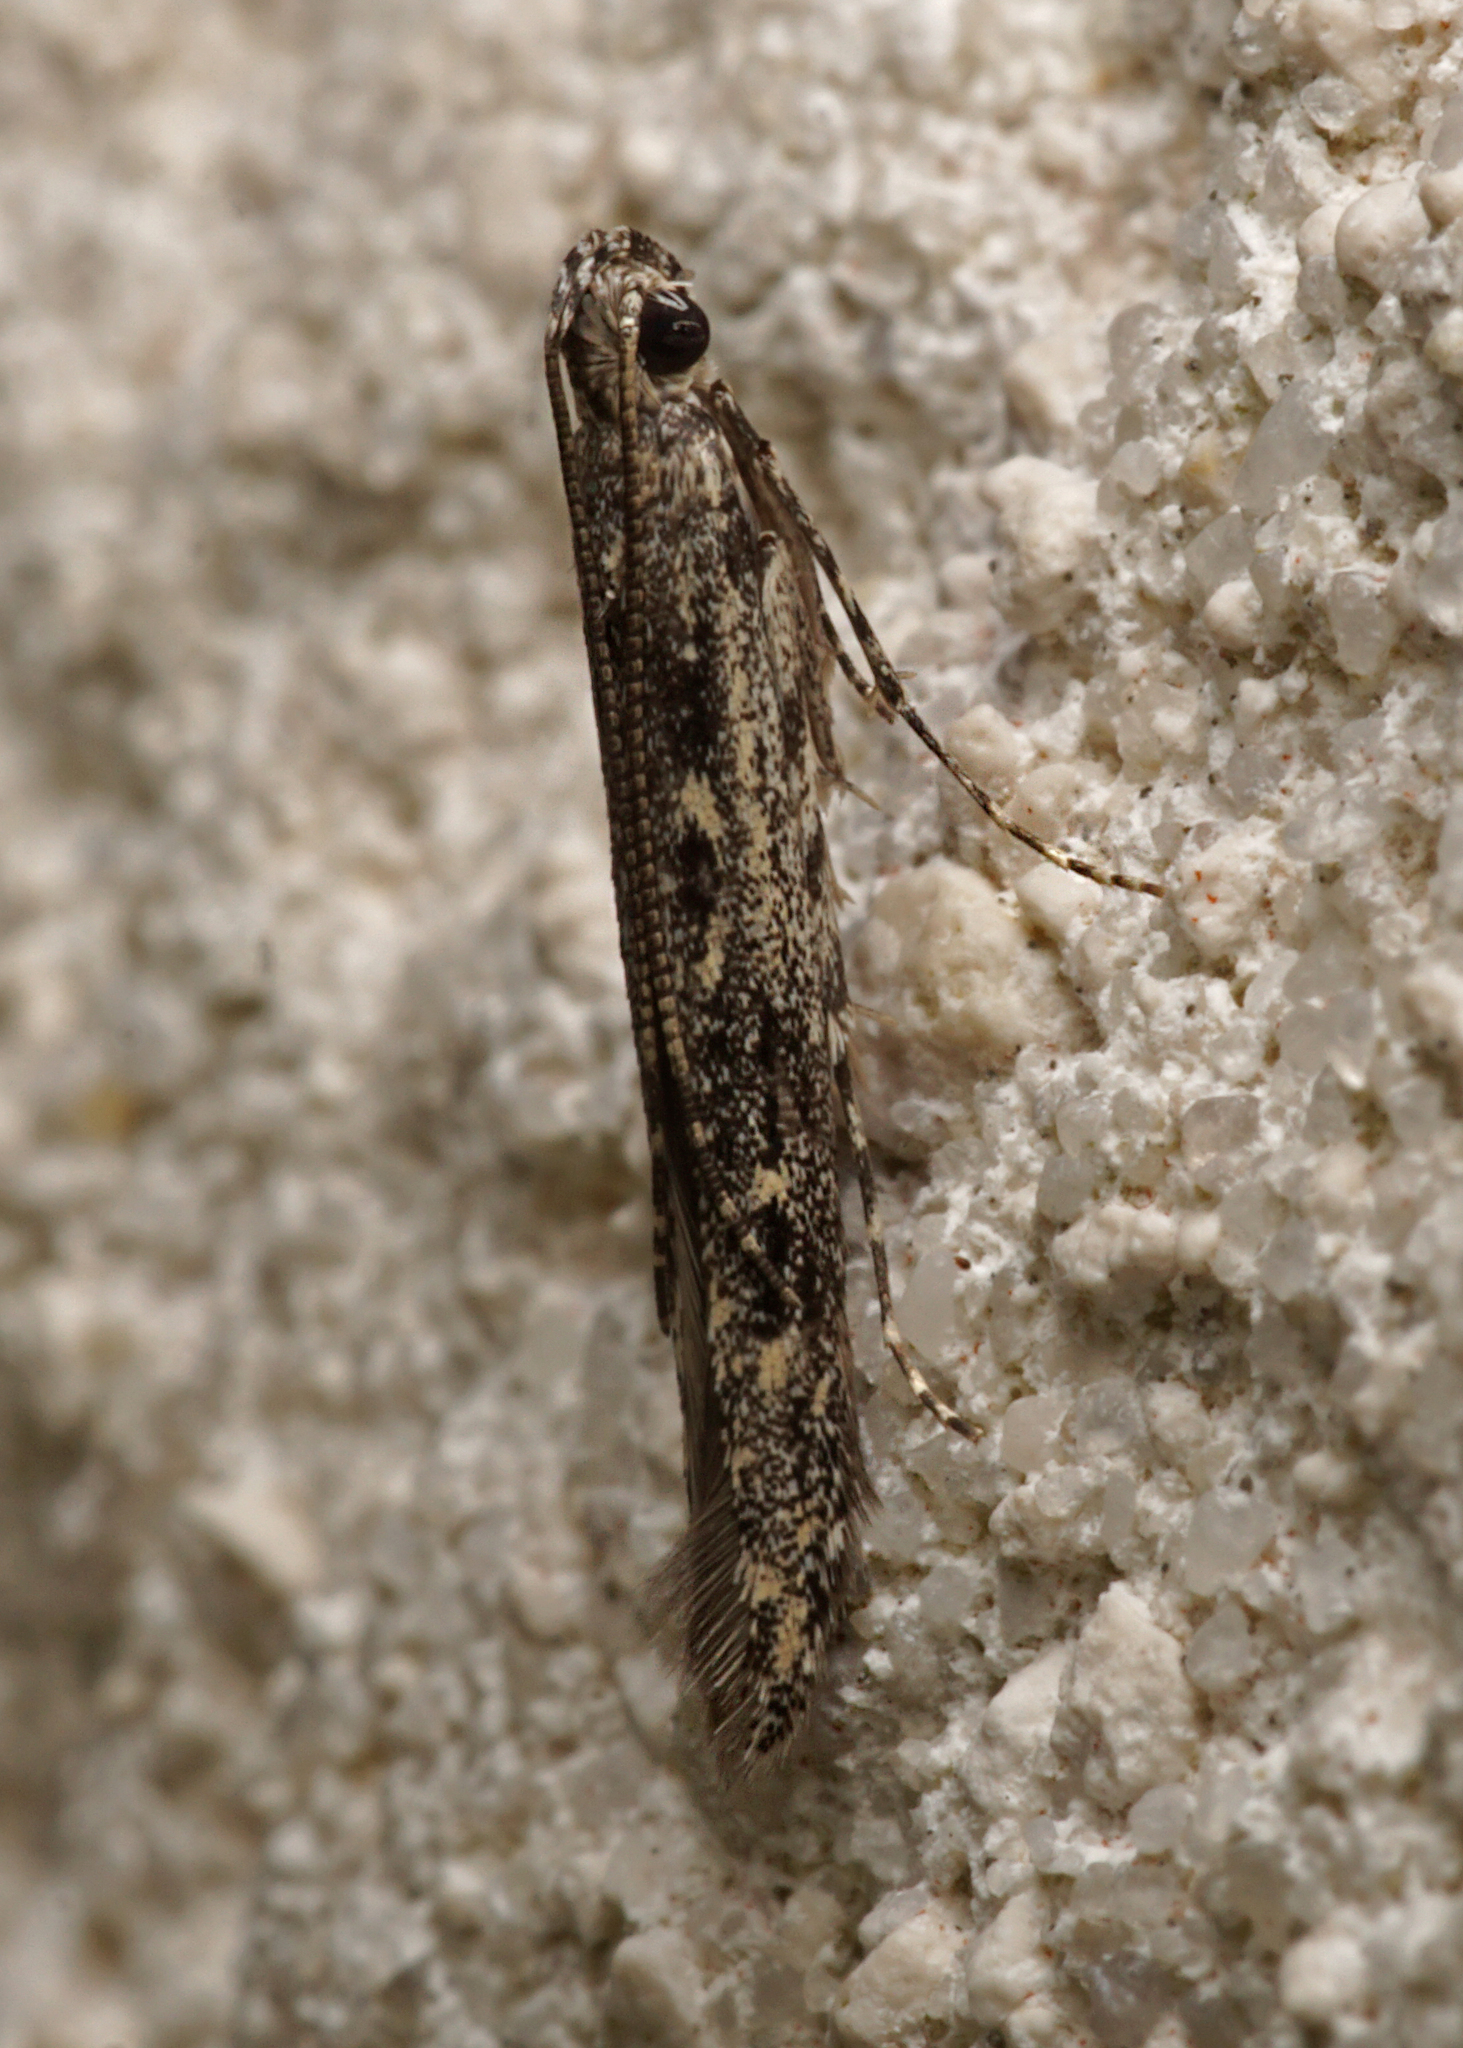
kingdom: Animalia
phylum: Arthropoda
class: Insecta
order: Lepidoptera
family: Batrachedridae
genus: Batrachedra
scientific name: Batrachedra praeangusta
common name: Poplar cosmet
